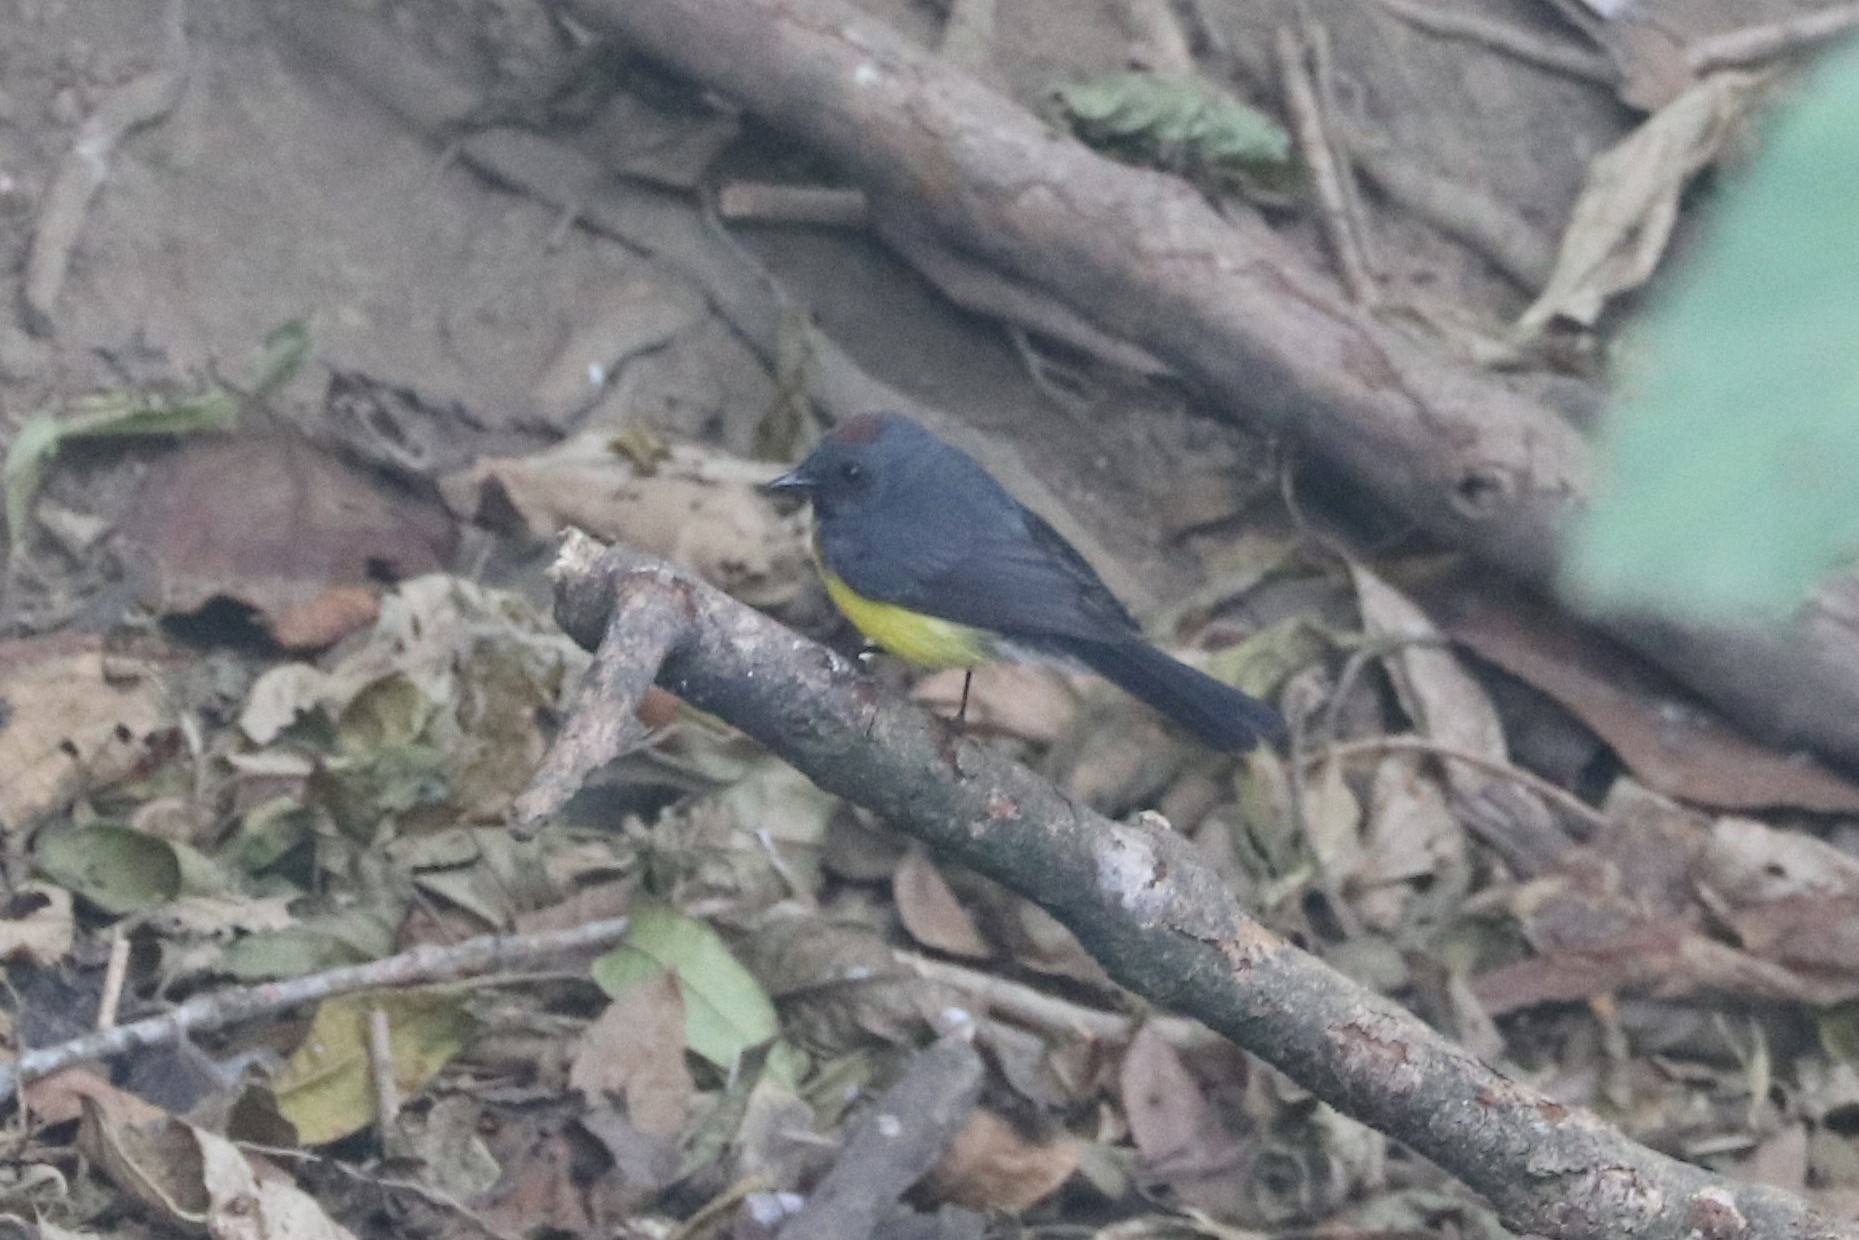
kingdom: Animalia
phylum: Chordata
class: Aves
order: Passeriformes
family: Parulidae
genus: Myioborus
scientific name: Myioborus miniatus
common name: Slate-throated redstart
